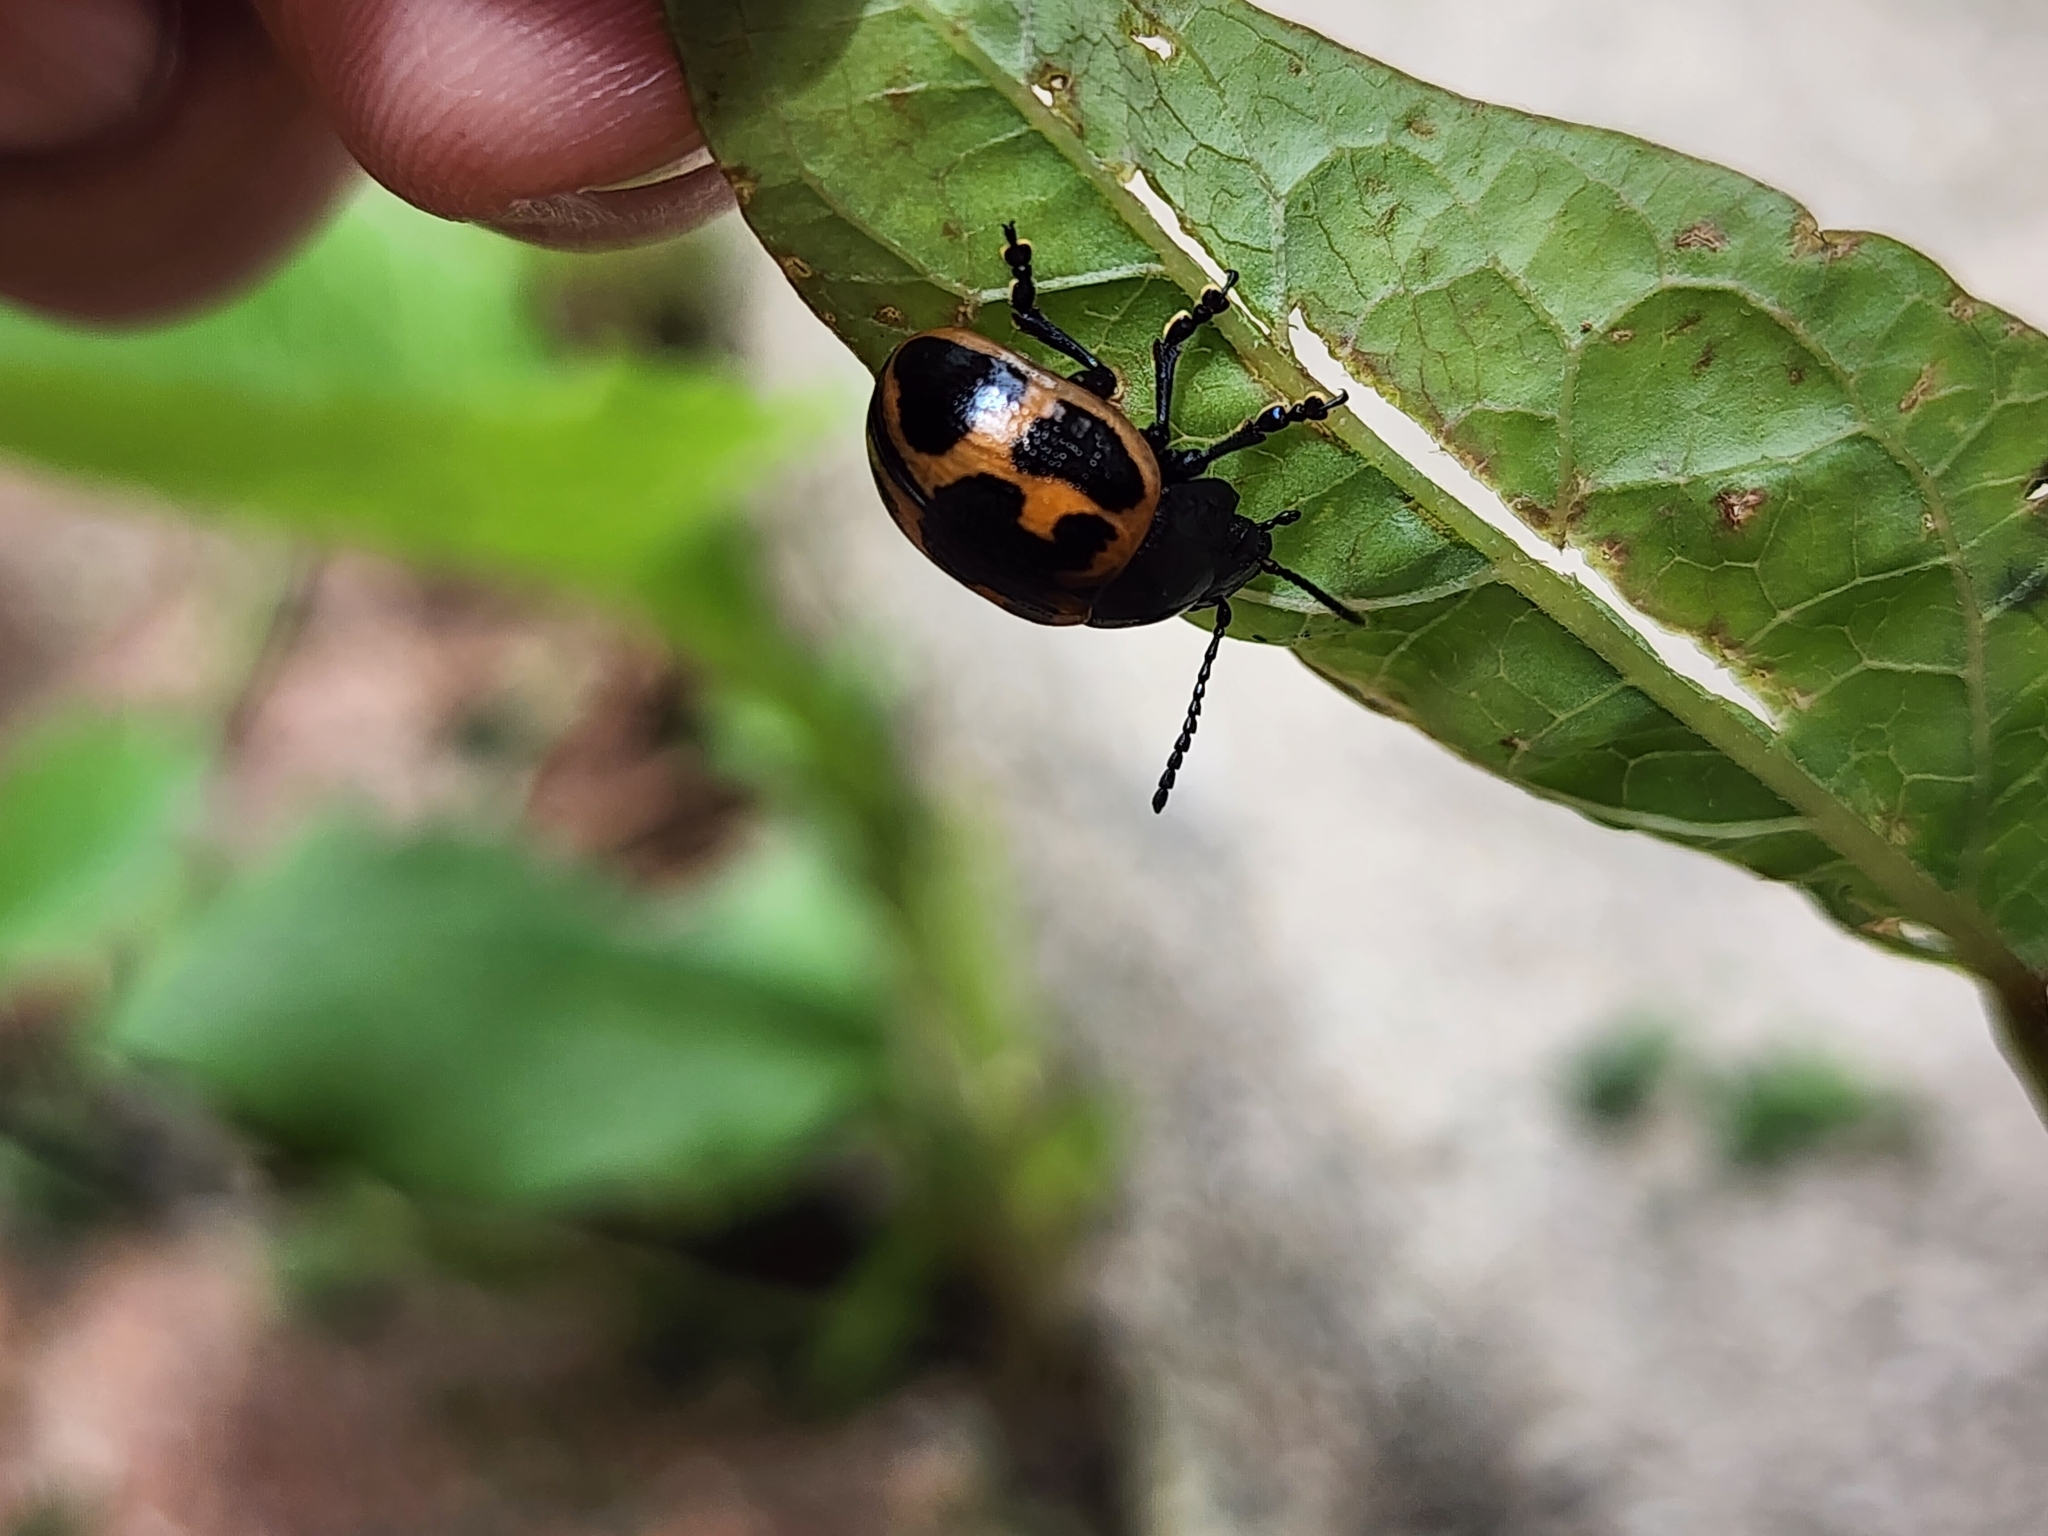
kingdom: Animalia
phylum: Arthropoda
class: Insecta
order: Coleoptera
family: Chrysomelidae
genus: Labidomera
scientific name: Labidomera clivicollis
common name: Swamp milkweed leaf beetle
